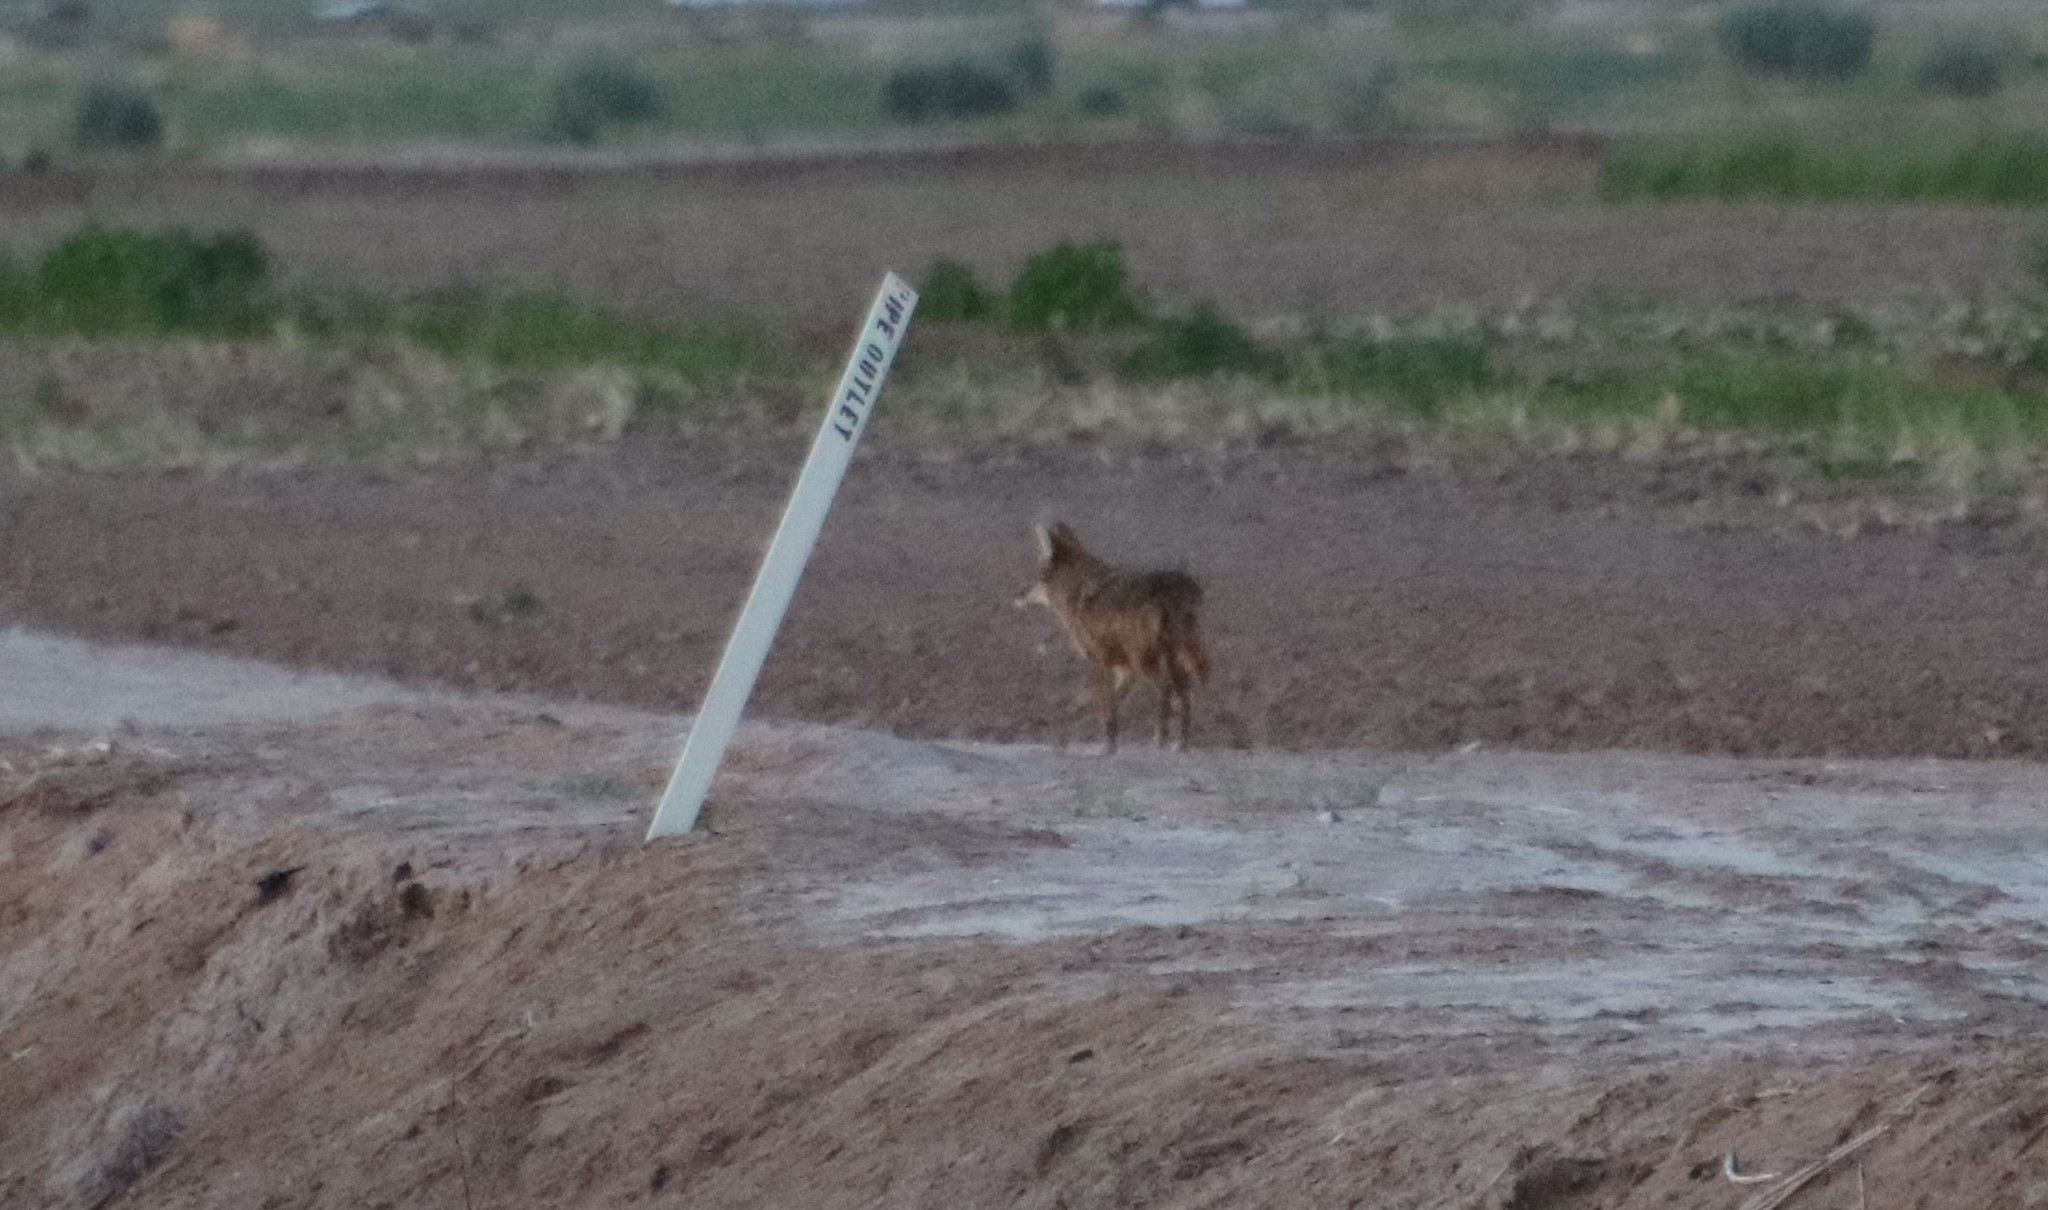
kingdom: Animalia
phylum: Chordata
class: Mammalia
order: Carnivora
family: Canidae
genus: Canis
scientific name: Canis latrans
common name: Coyote
